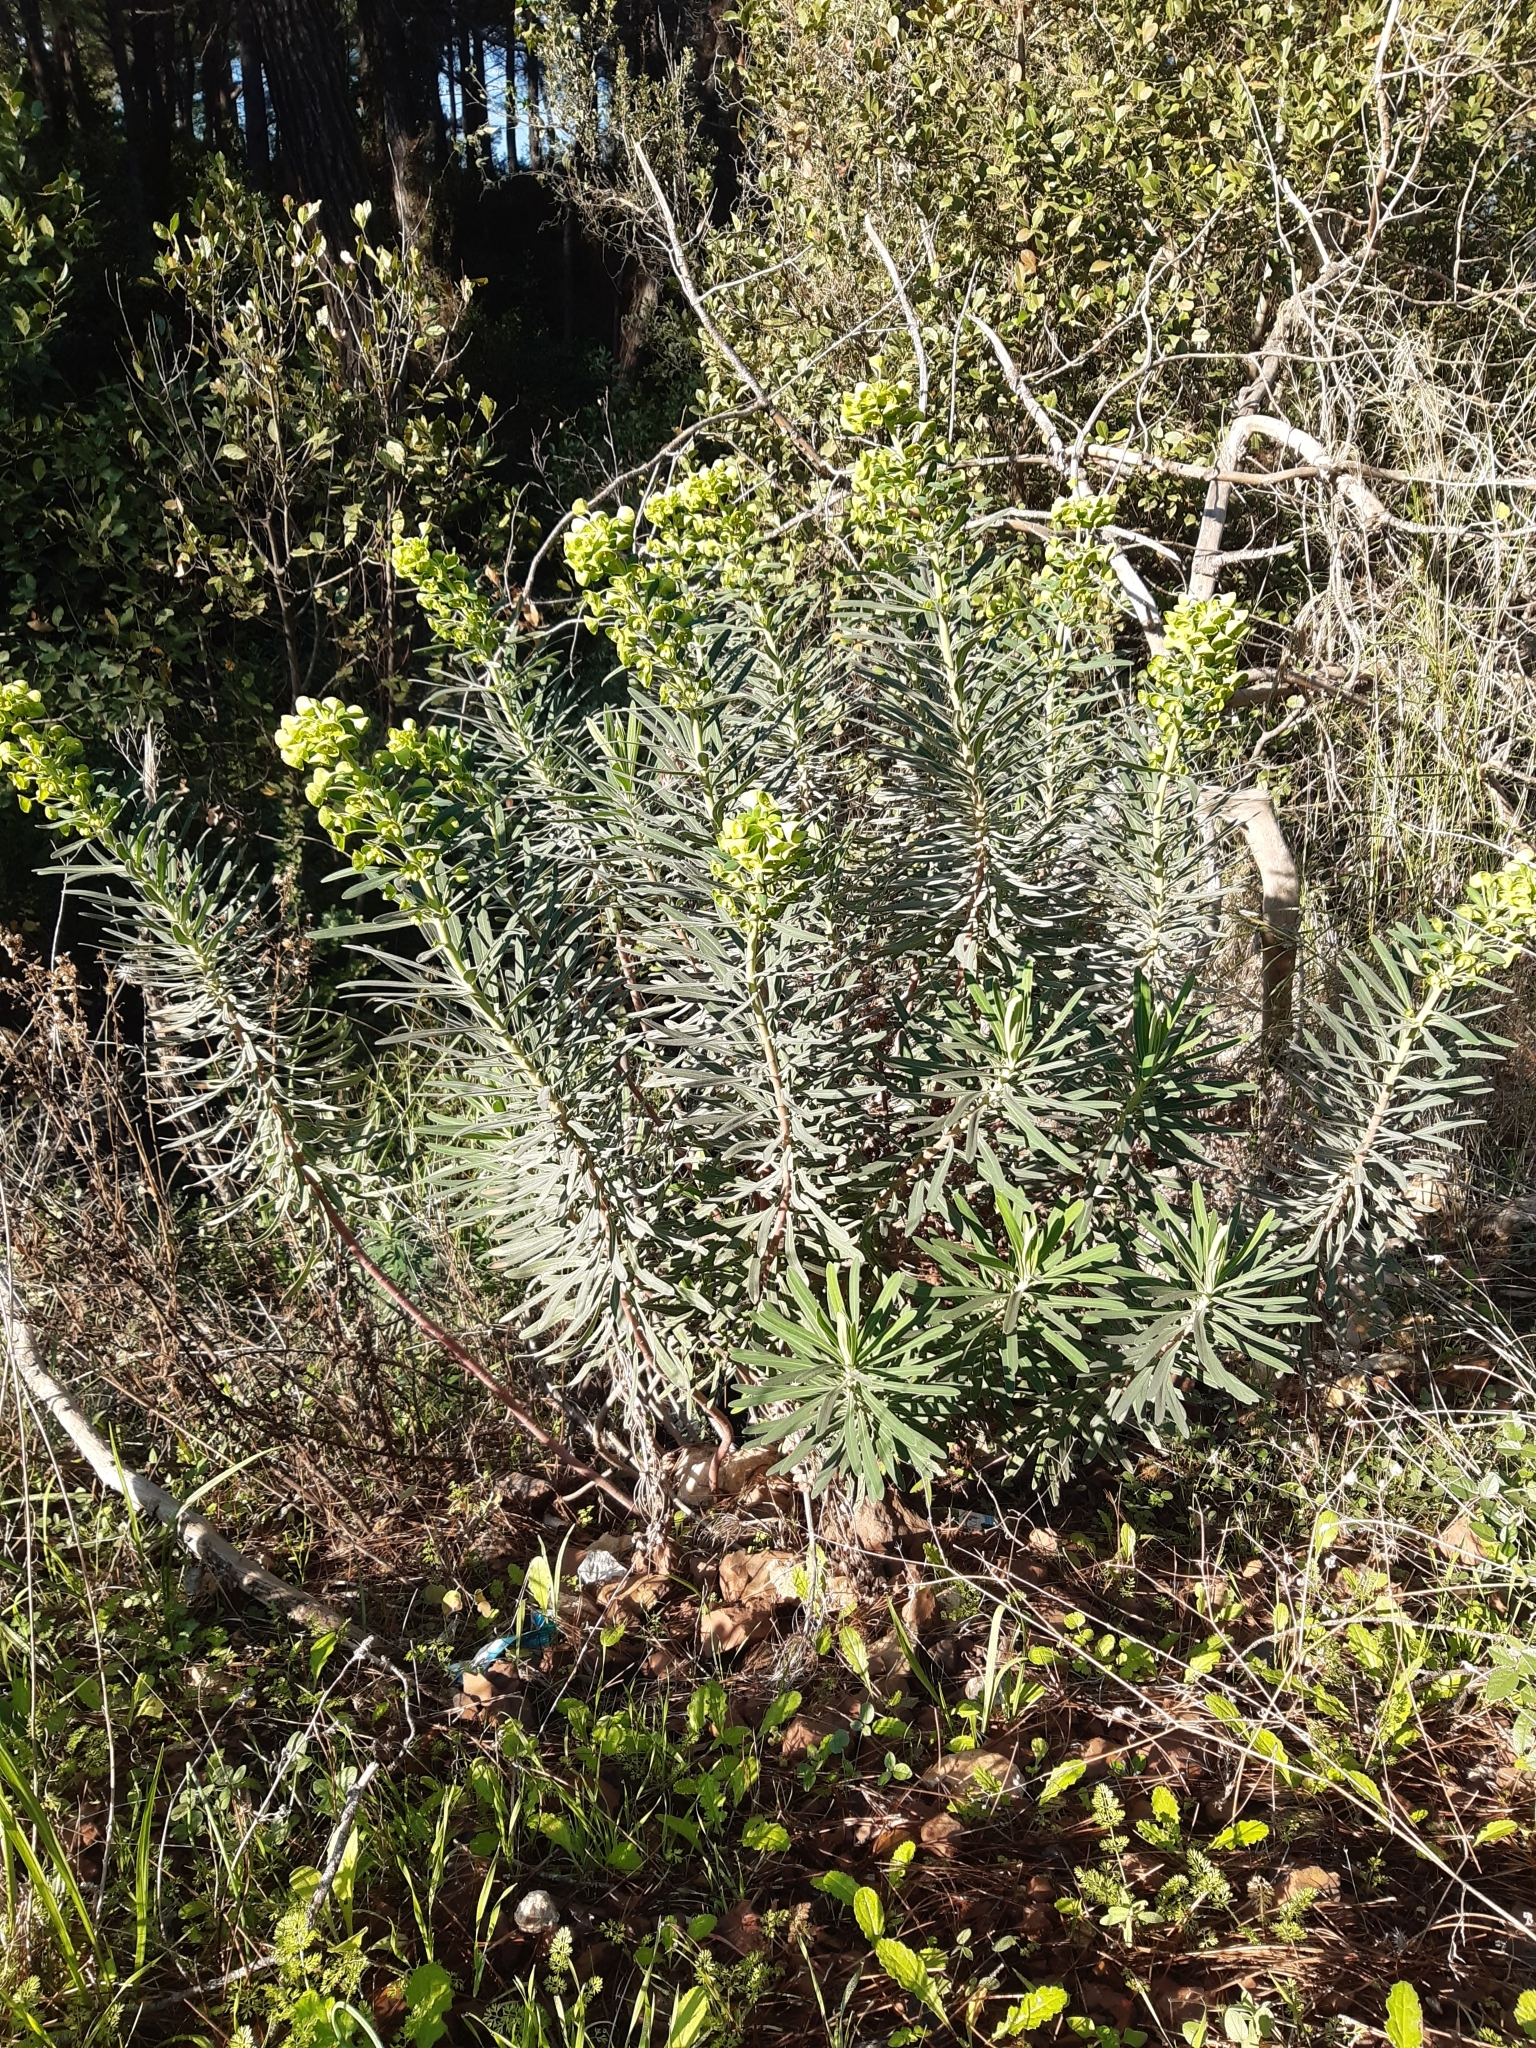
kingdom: Plantae
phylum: Tracheophyta
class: Magnoliopsida
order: Malpighiales
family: Euphorbiaceae
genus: Euphorbia
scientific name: Euphorbia characias
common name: Mediterranean spurge
